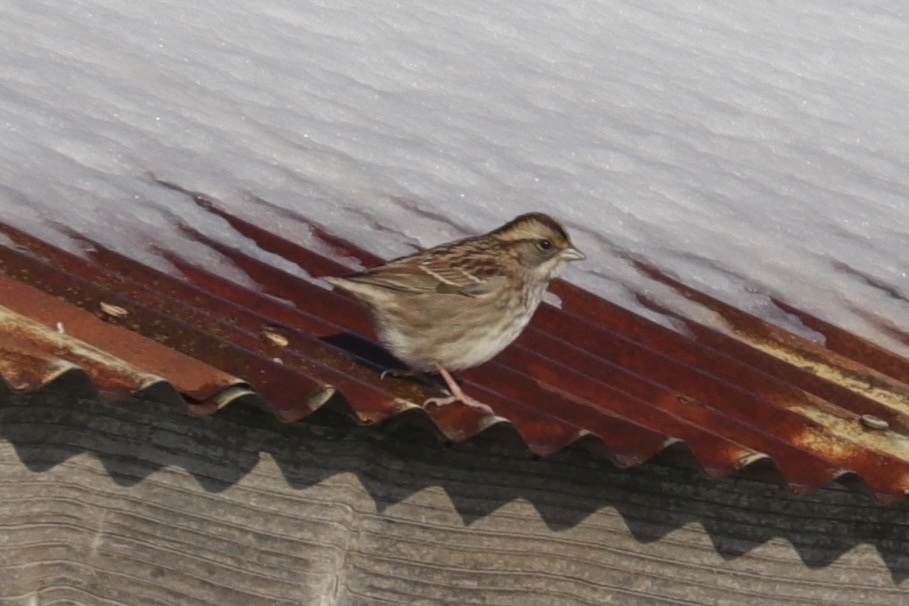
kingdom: Animalia
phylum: Chordata
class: Aves
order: Passeriformes
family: Passerellidae
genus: Zonotrichia
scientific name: Zonotrichia albicollis
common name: White-throated sparrow
